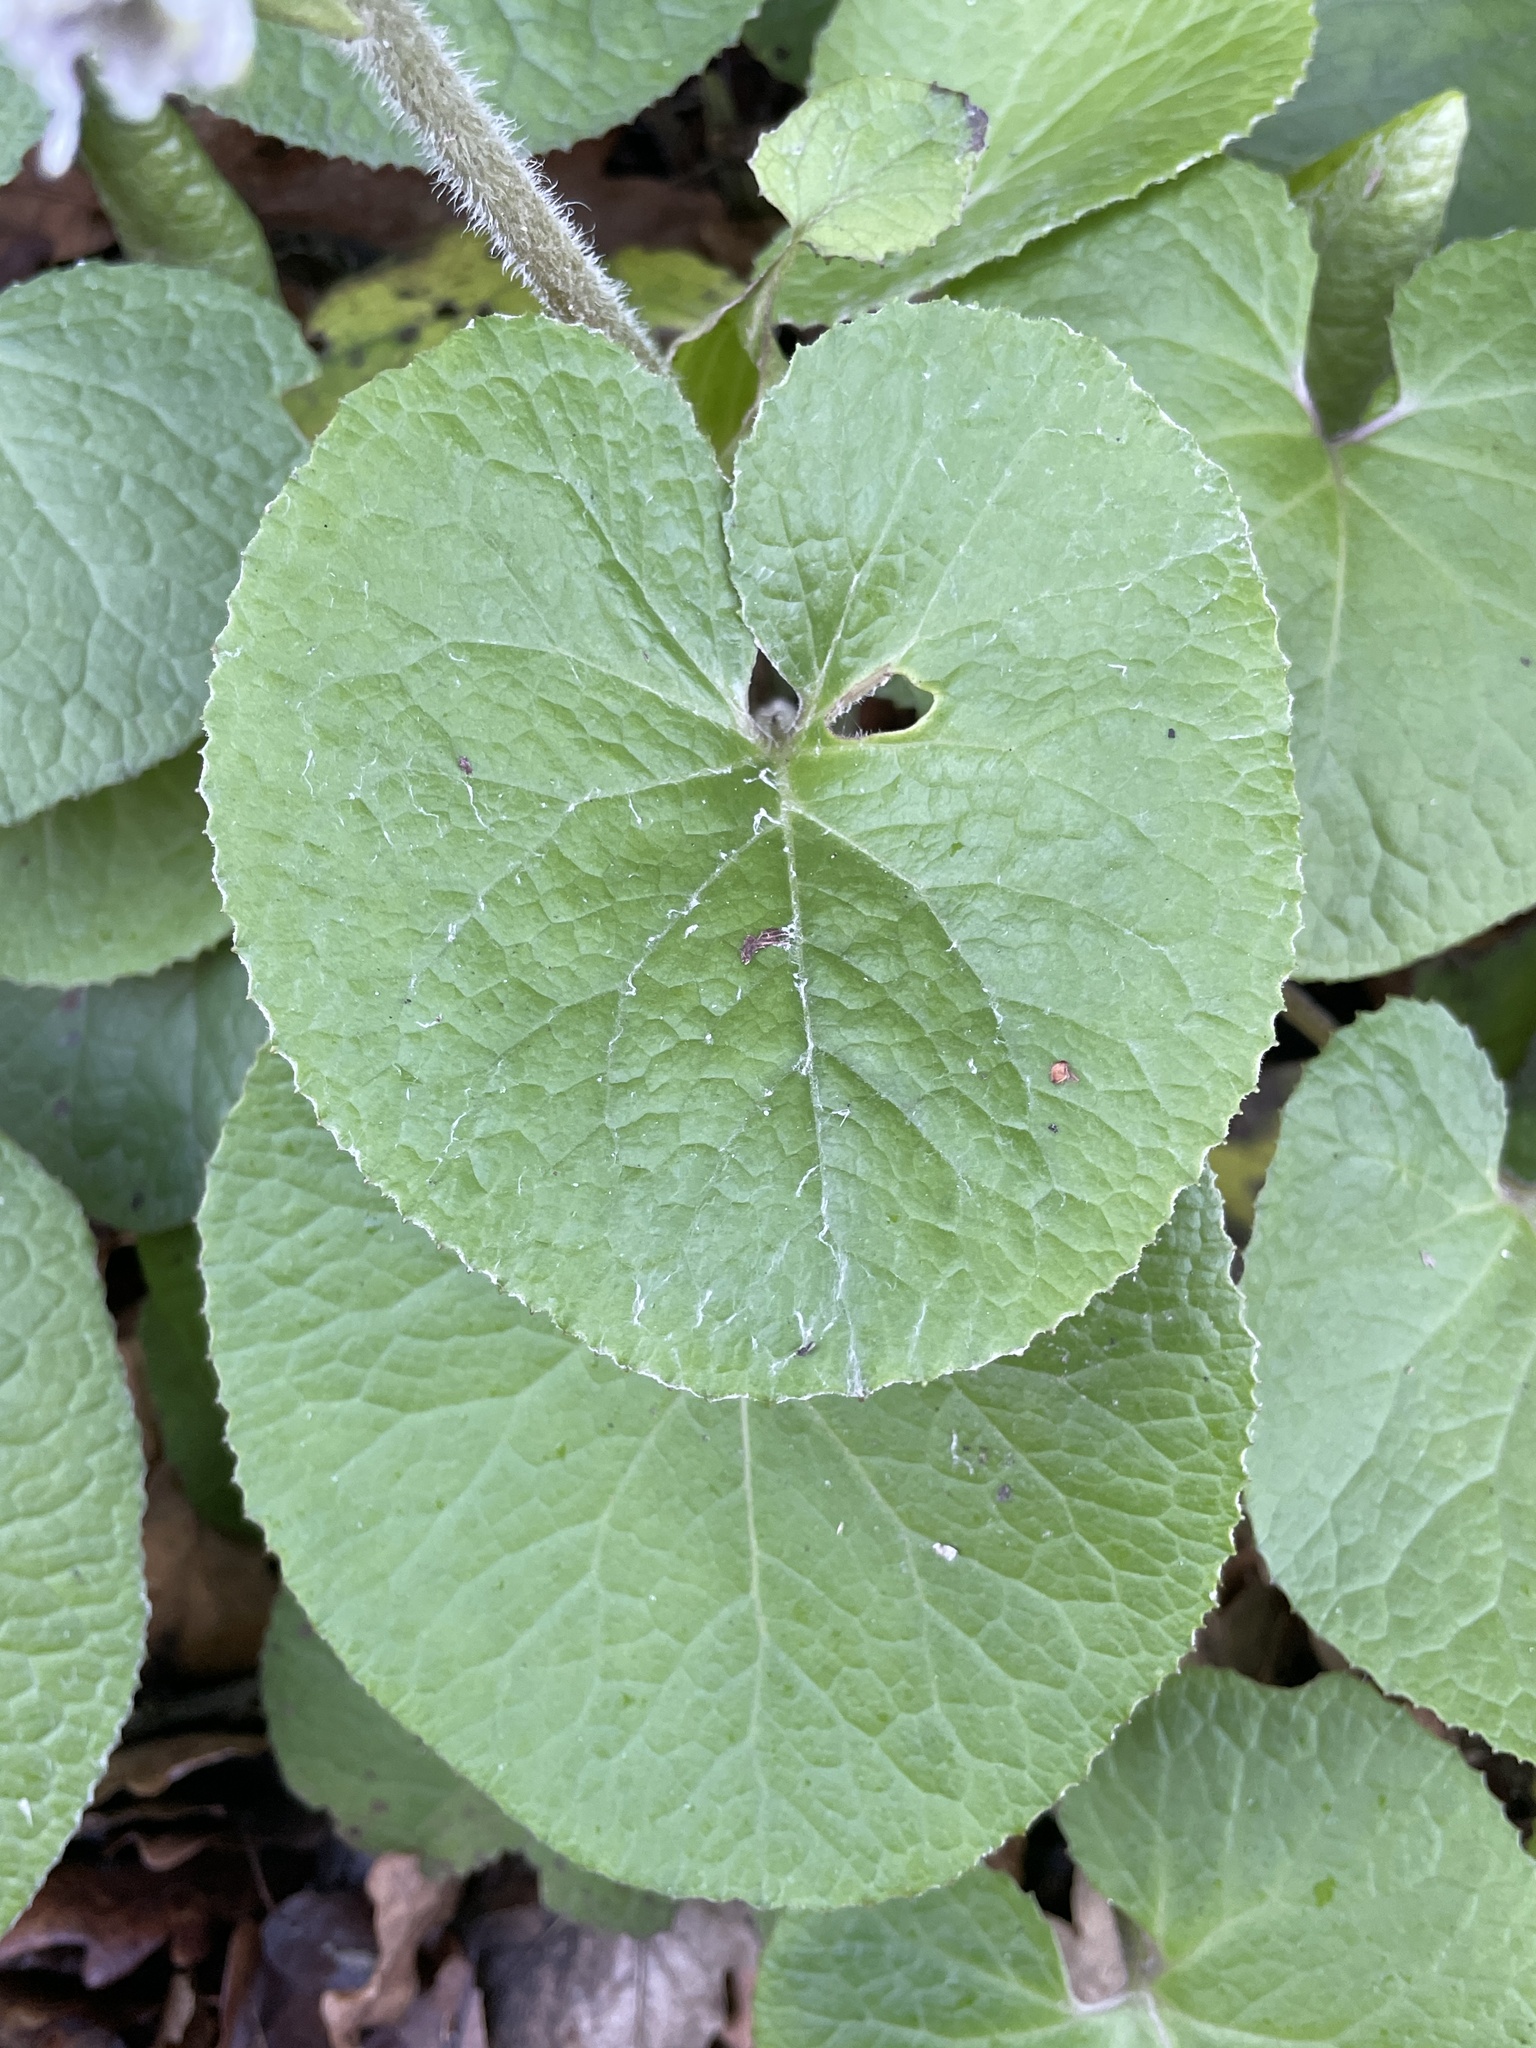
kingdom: Plantae
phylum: Tracheophyta
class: Magnoliopsida
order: Asterales
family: Asteraceae
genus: Petasites
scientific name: Petasites pyrenaicus
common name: Winter heliotrope
